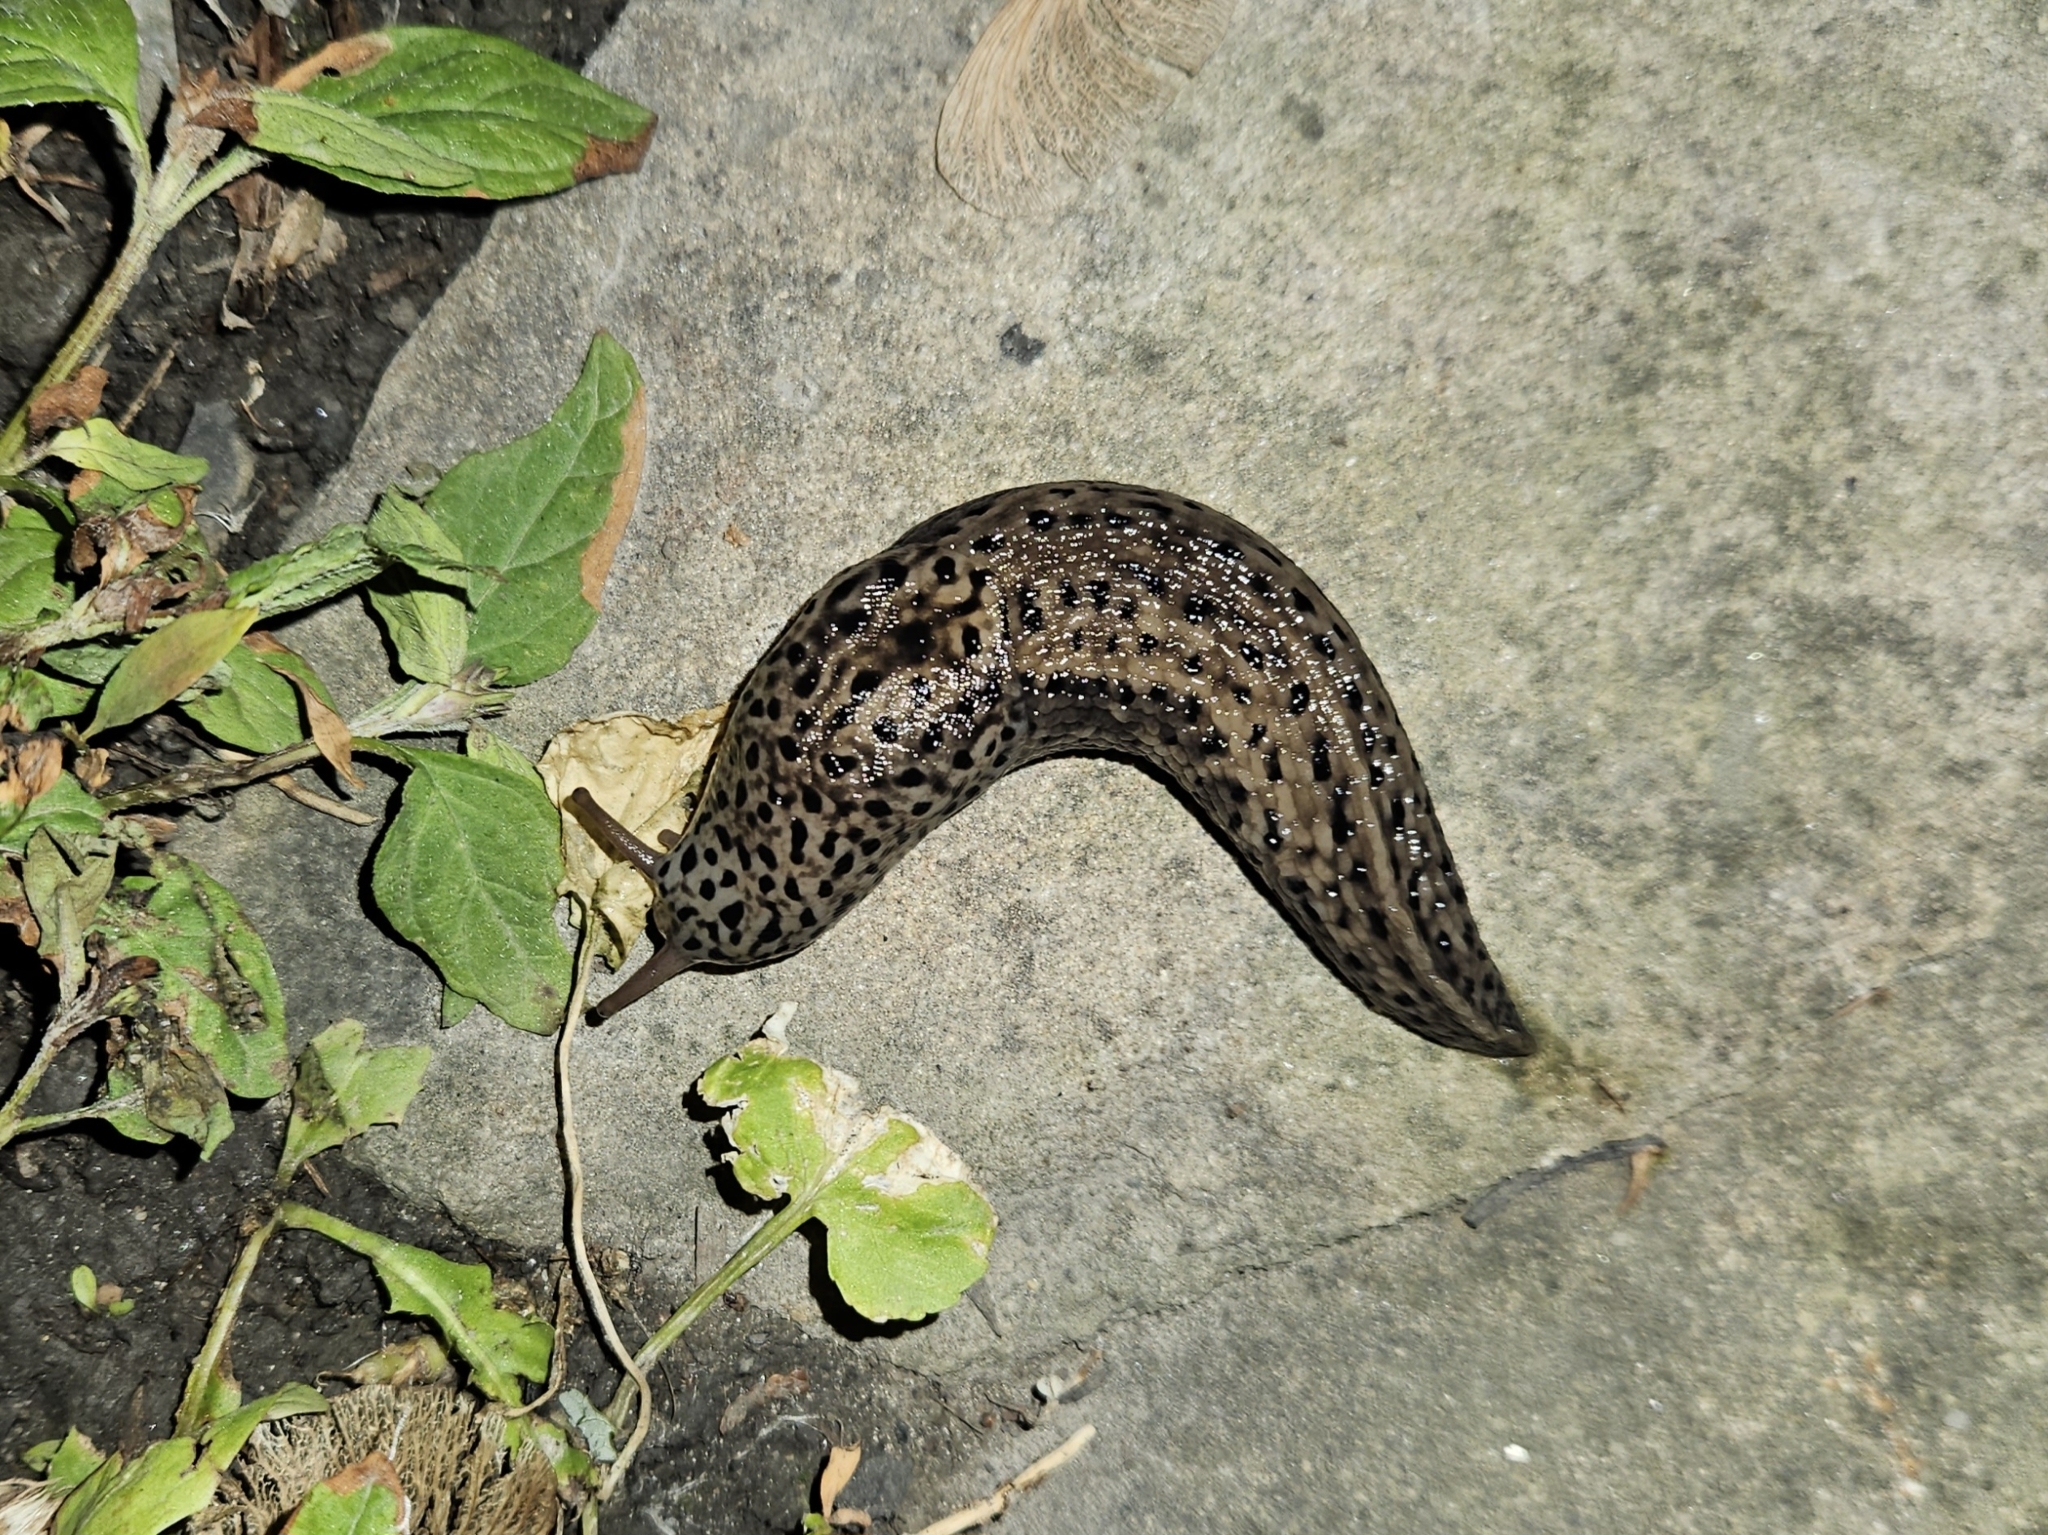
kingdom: Animalia
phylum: Mollusca
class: Gastropoda
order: Stylommatophora
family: Limacidae
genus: Limax
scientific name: Limax maximus
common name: Great grey slug
